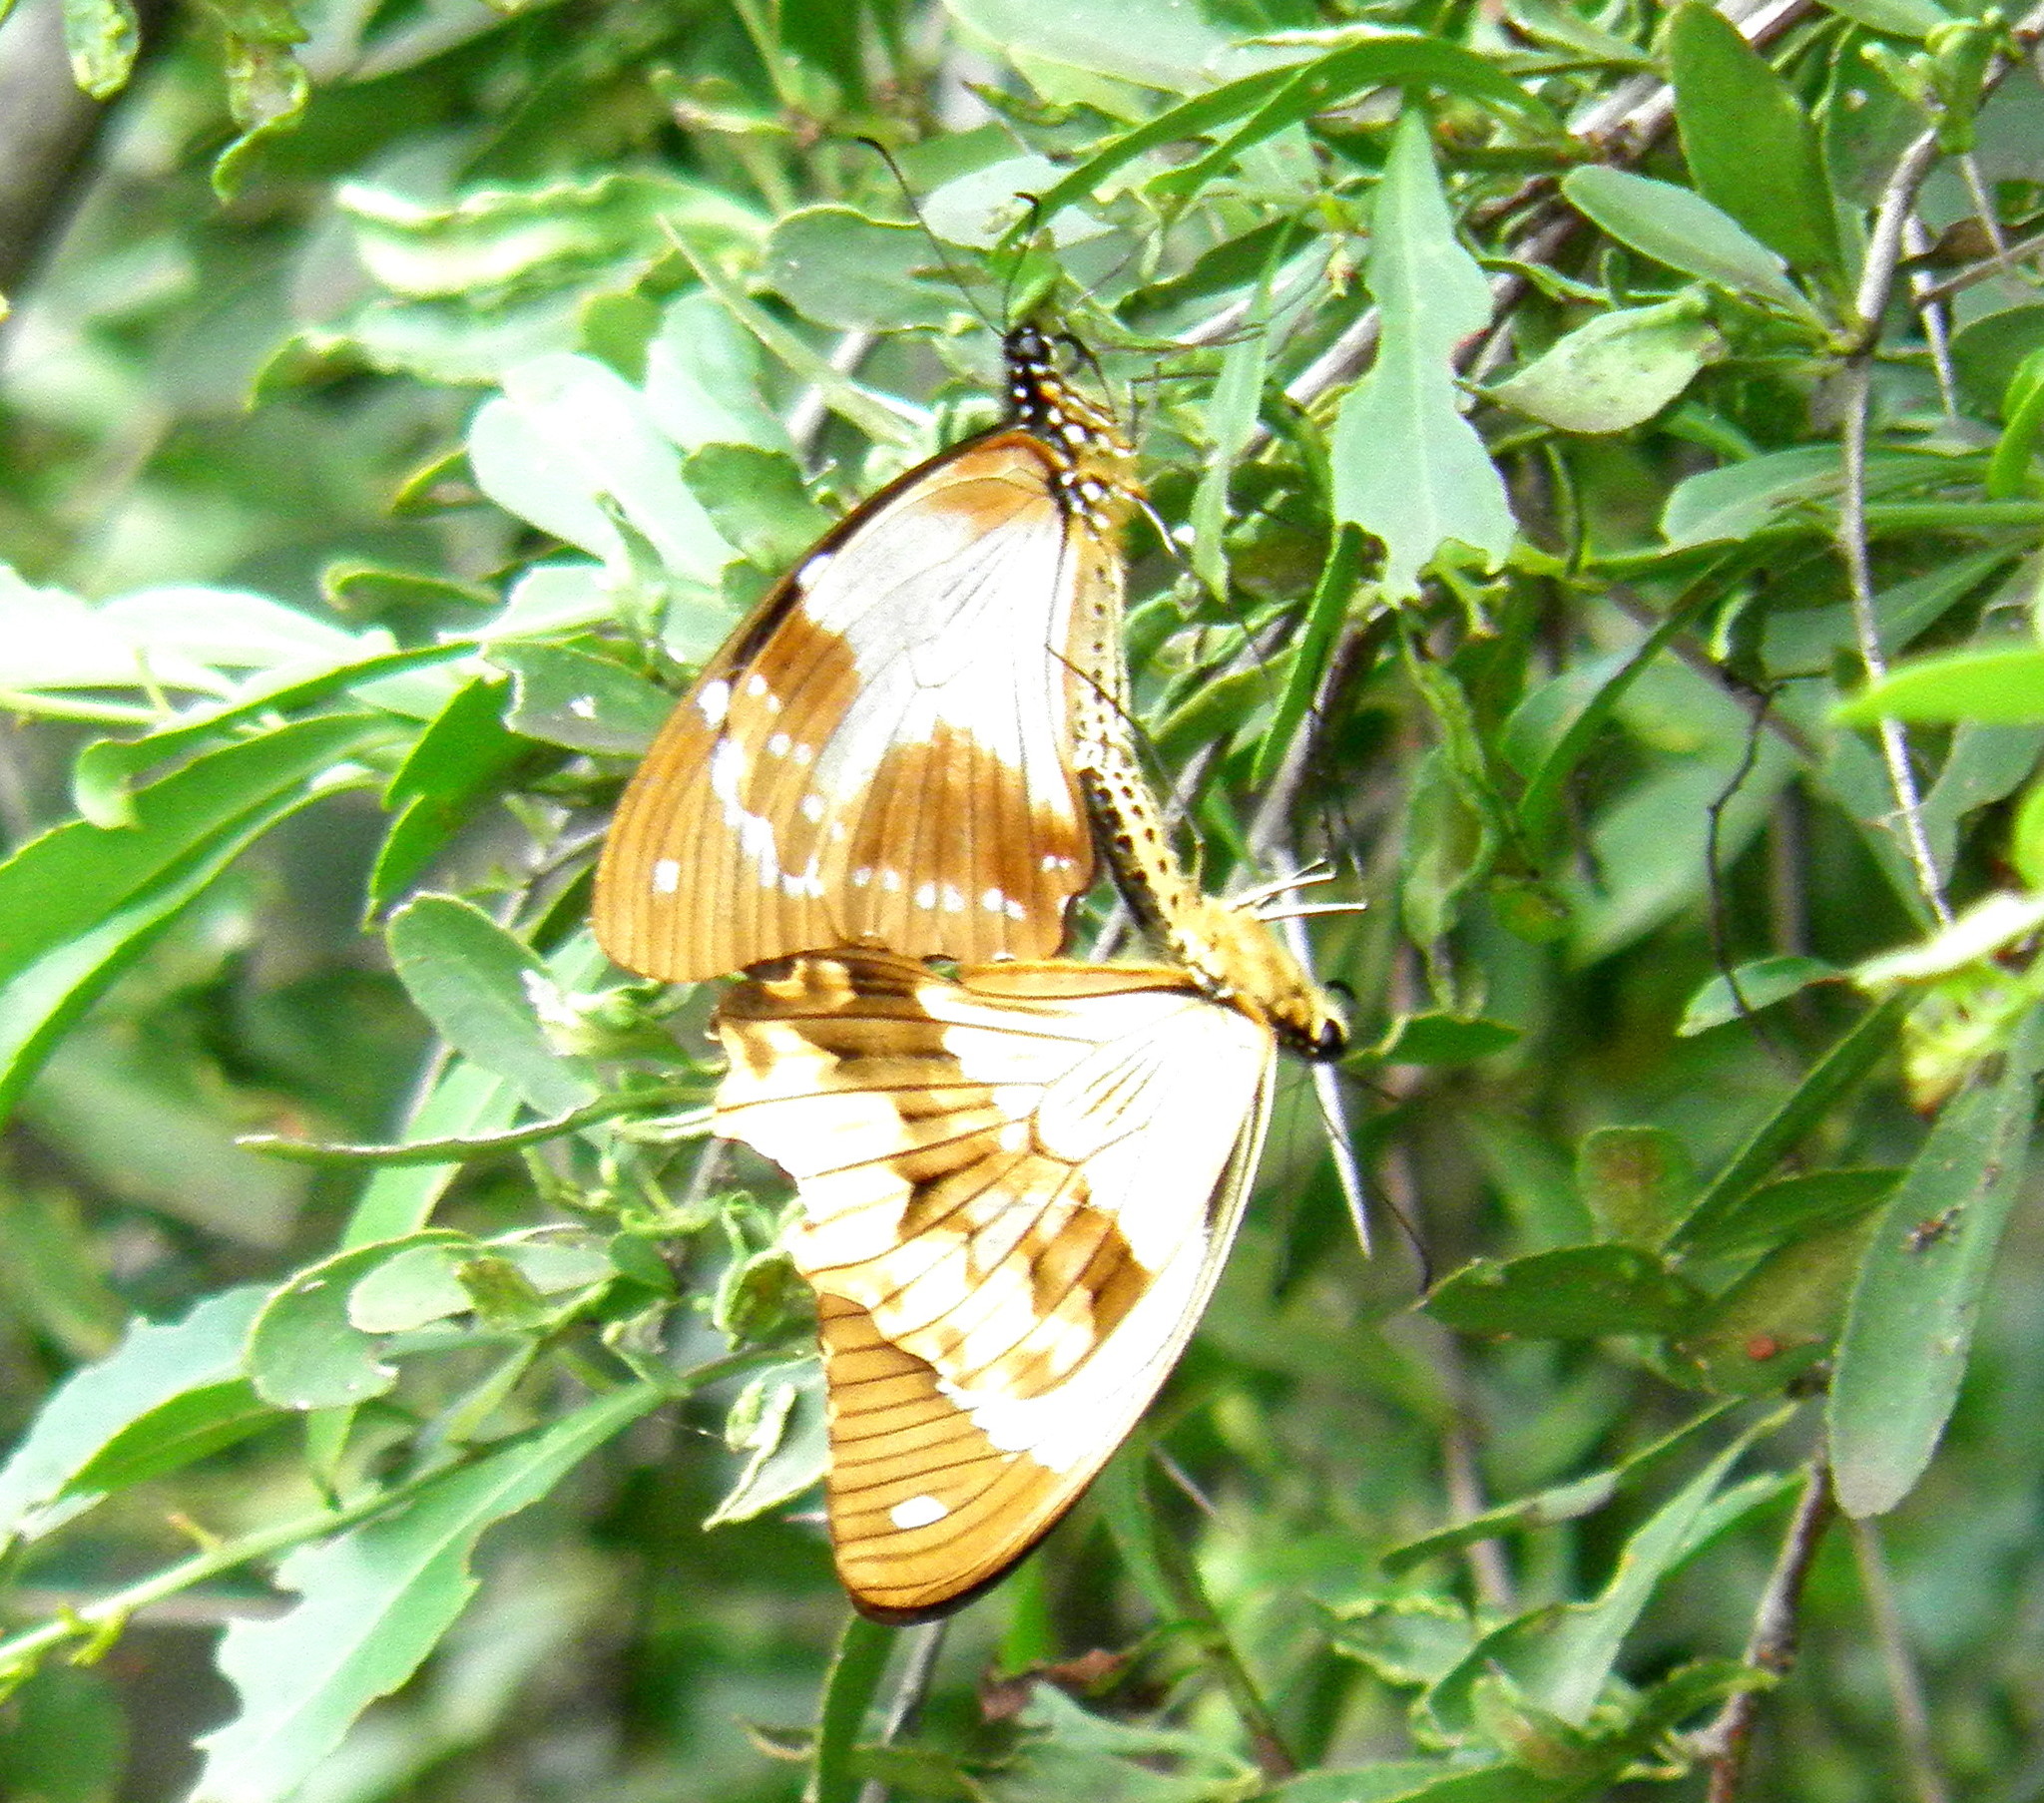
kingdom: Animalia
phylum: Arthropoda
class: Insecta
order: Lepidoptera
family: Papilionidae
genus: Papilio
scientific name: Papilio dardanus
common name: Flying handkerchief
